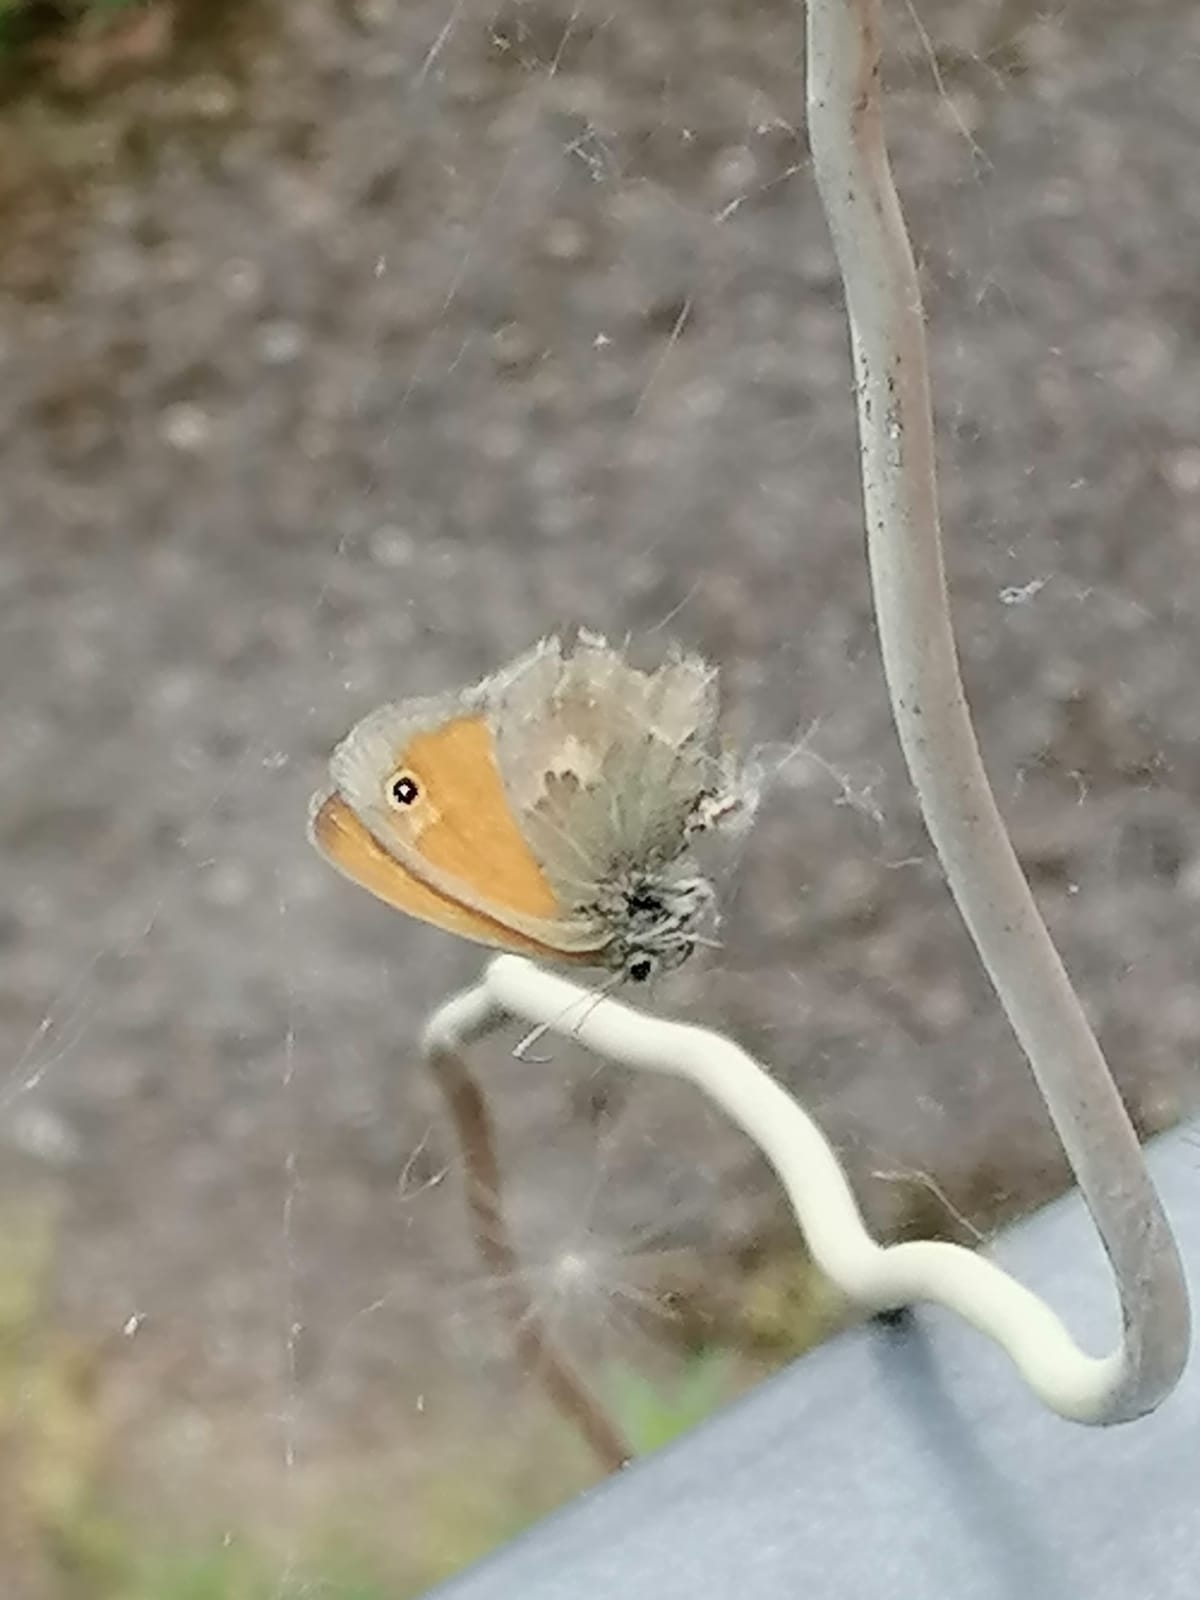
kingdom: Animalia
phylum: Arthropoda
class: Insecta
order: Lepidoptera
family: Nymphalidae
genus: Coenonympha
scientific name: Coenonympha pamphilus
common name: Small heath
